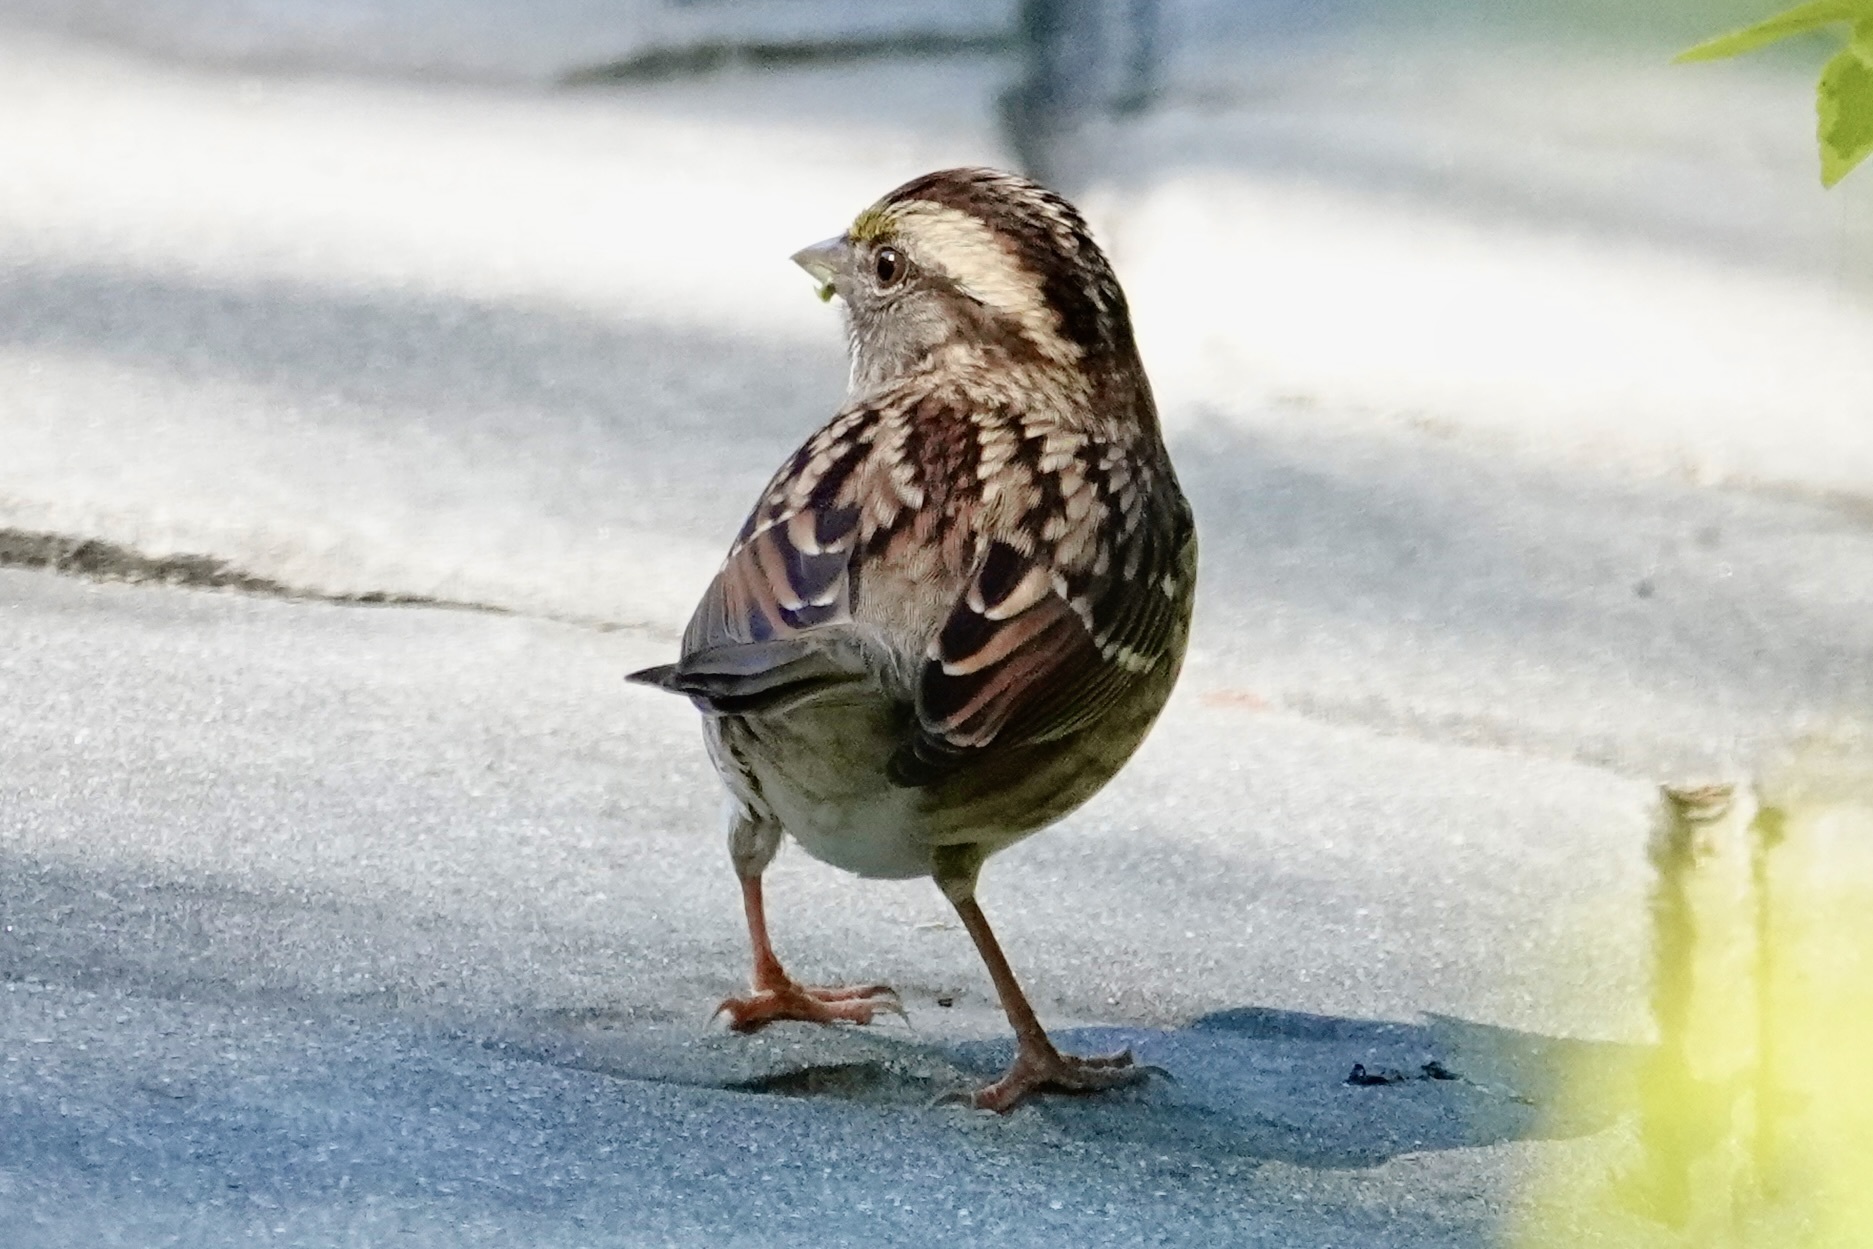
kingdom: Animalia
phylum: Chordata
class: Aves
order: Passeriformes
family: Passerellidae
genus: Zonotrichia
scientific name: Zonotrichia albicollis
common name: White-throated sparrow
